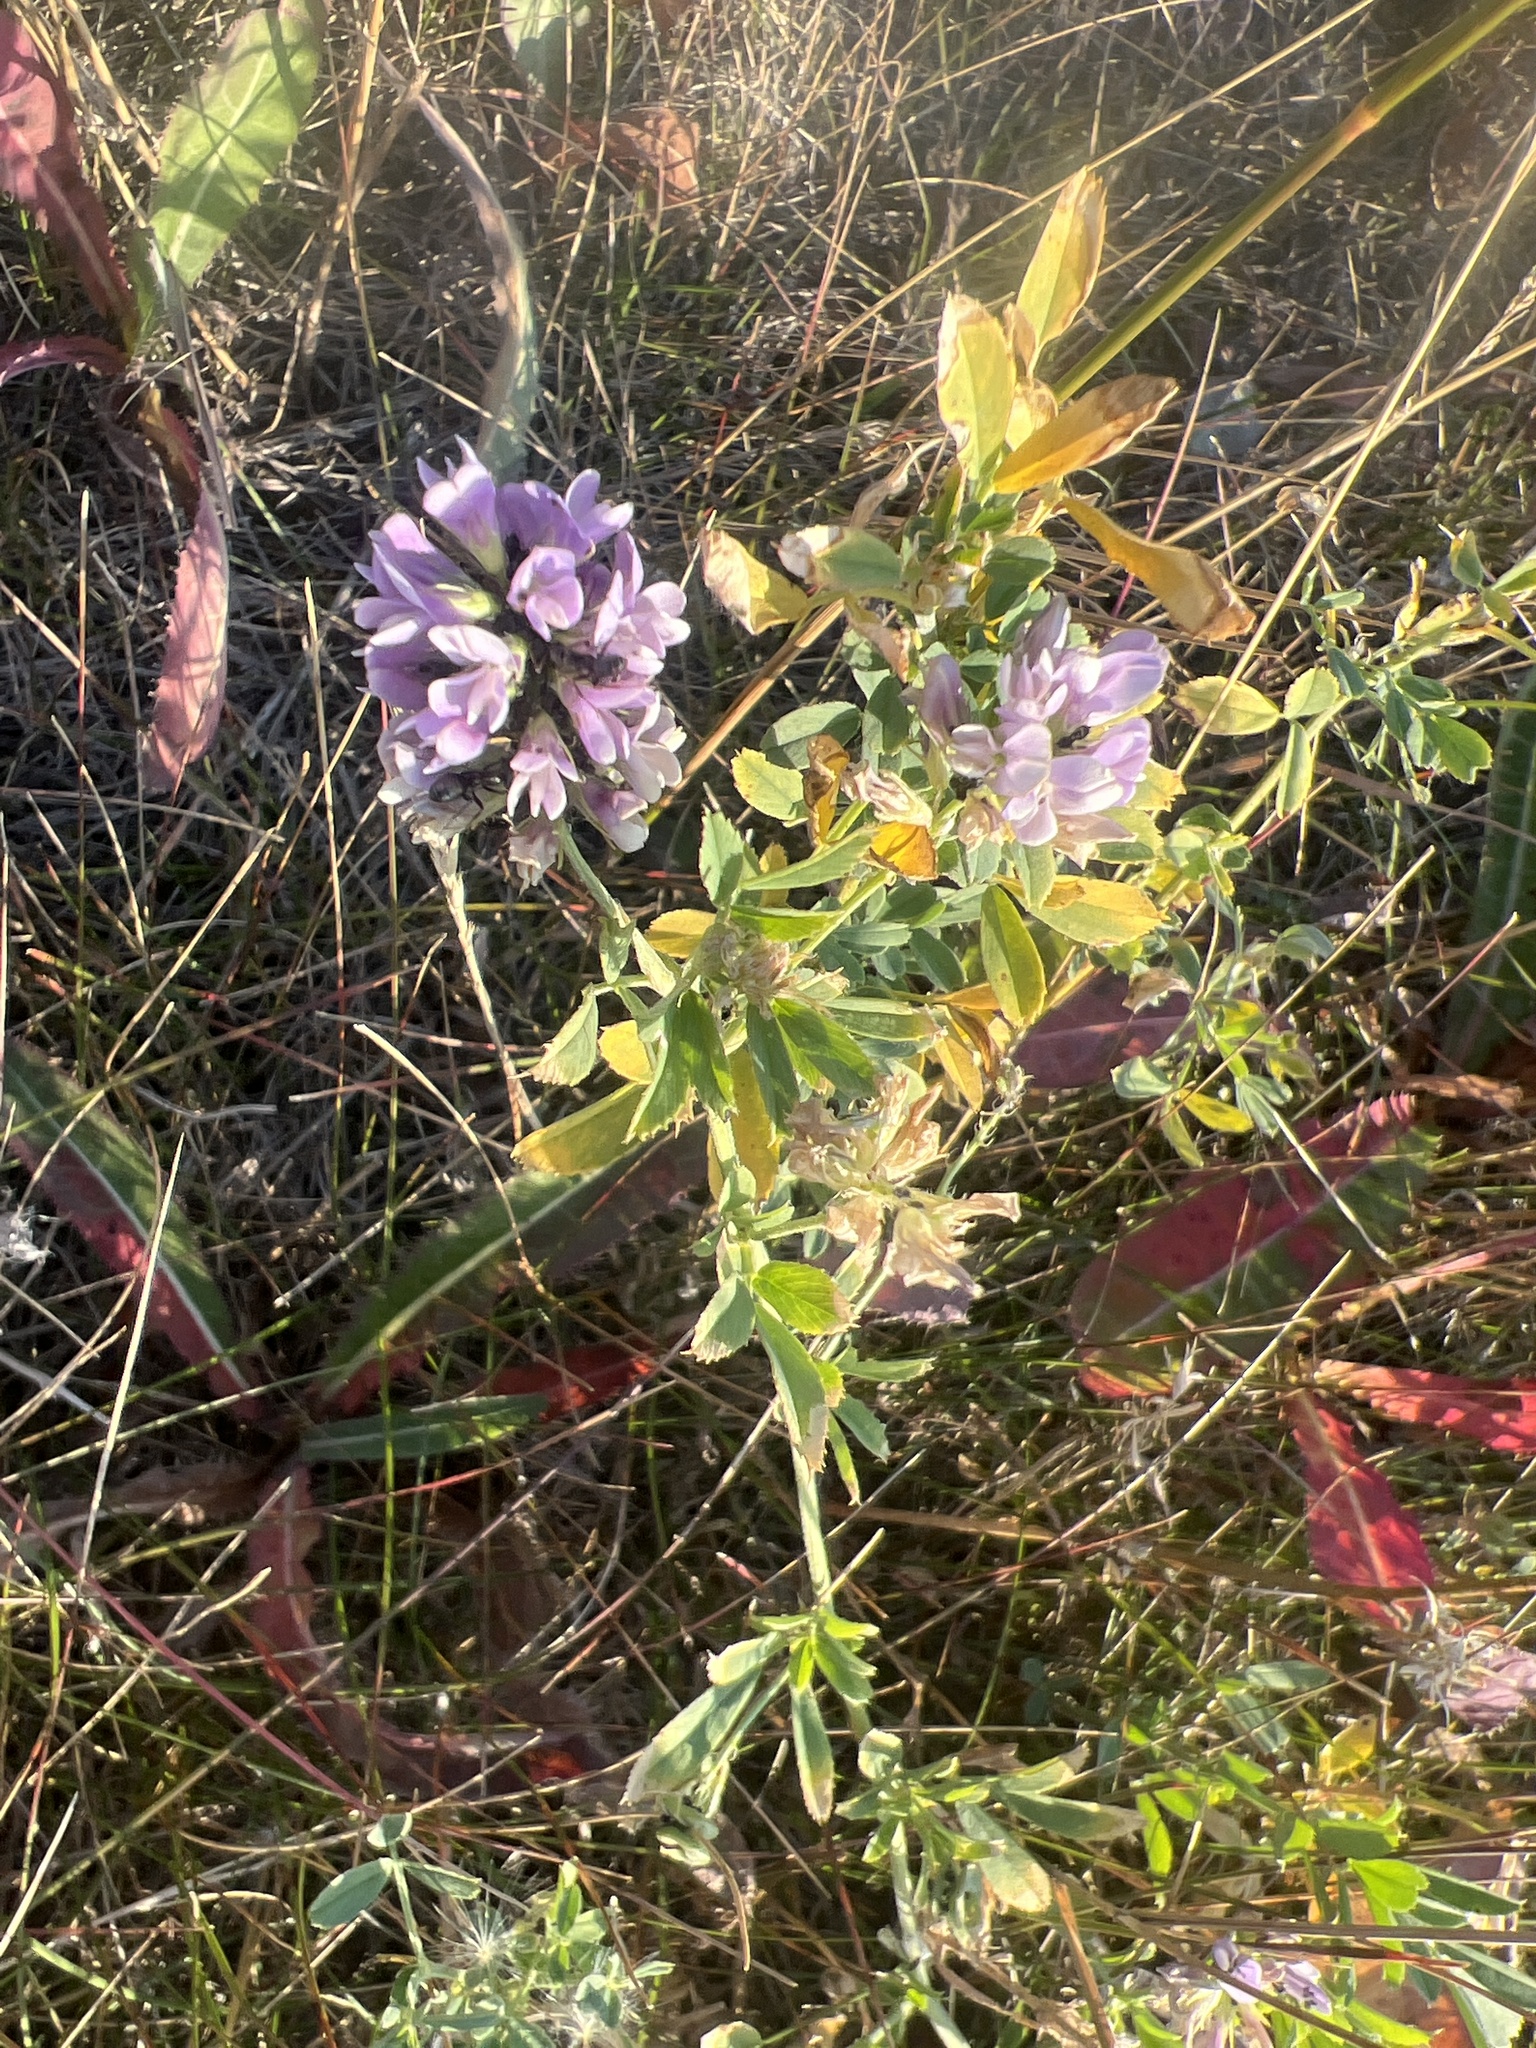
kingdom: Plantae
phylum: Tracheophyta
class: Magnoliopsida
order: Fabales
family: Fabaceae
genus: Medicago
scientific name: Medicago sativa
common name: Alfalfa
